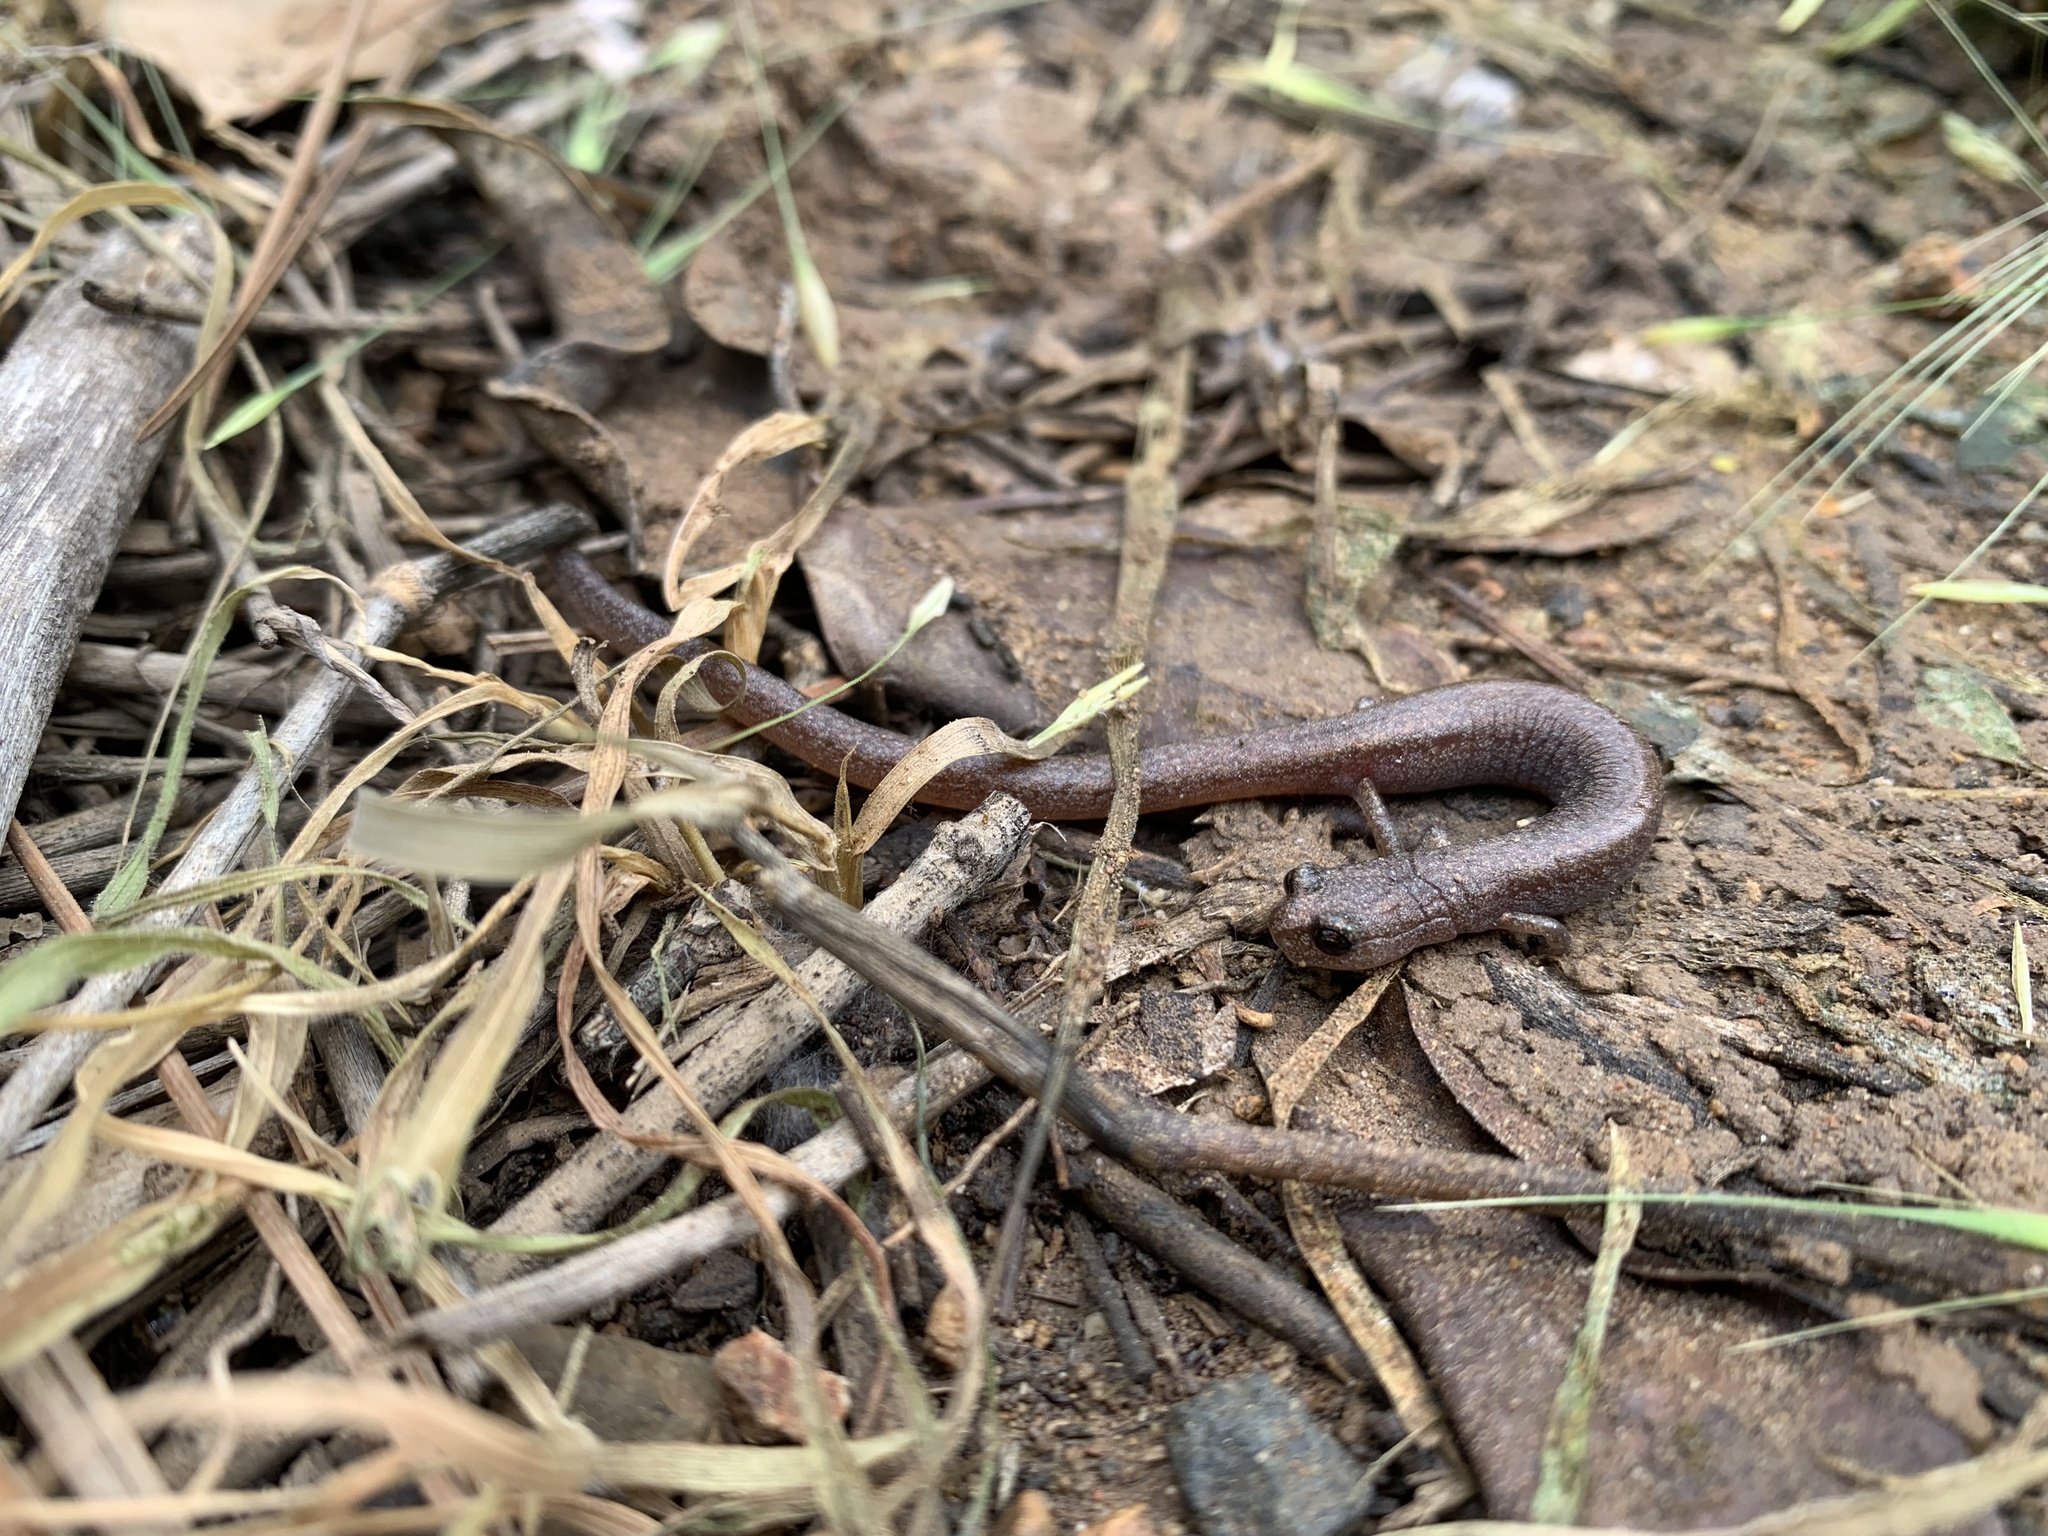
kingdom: Animalia
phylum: Chordata
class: Amphibia
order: Caudata
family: Plethodontidae
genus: Batrachoseps
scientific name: Batrachoseps major
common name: Garden slender salamander
